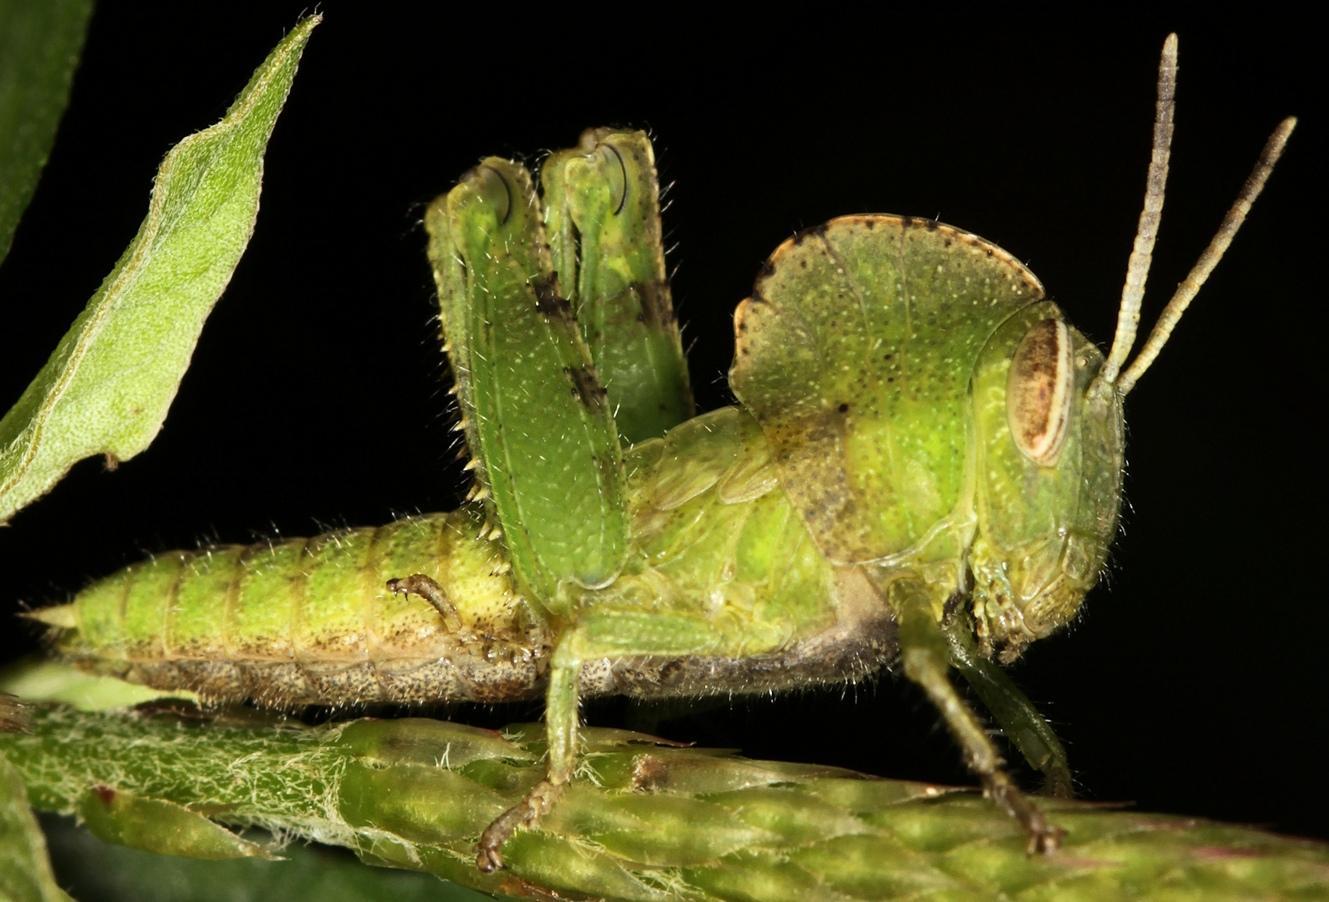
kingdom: Animalia
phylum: Arthropoda
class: Insecta
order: Orthoptera
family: Acrididae
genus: Abisares
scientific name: Abisares viridipenne
